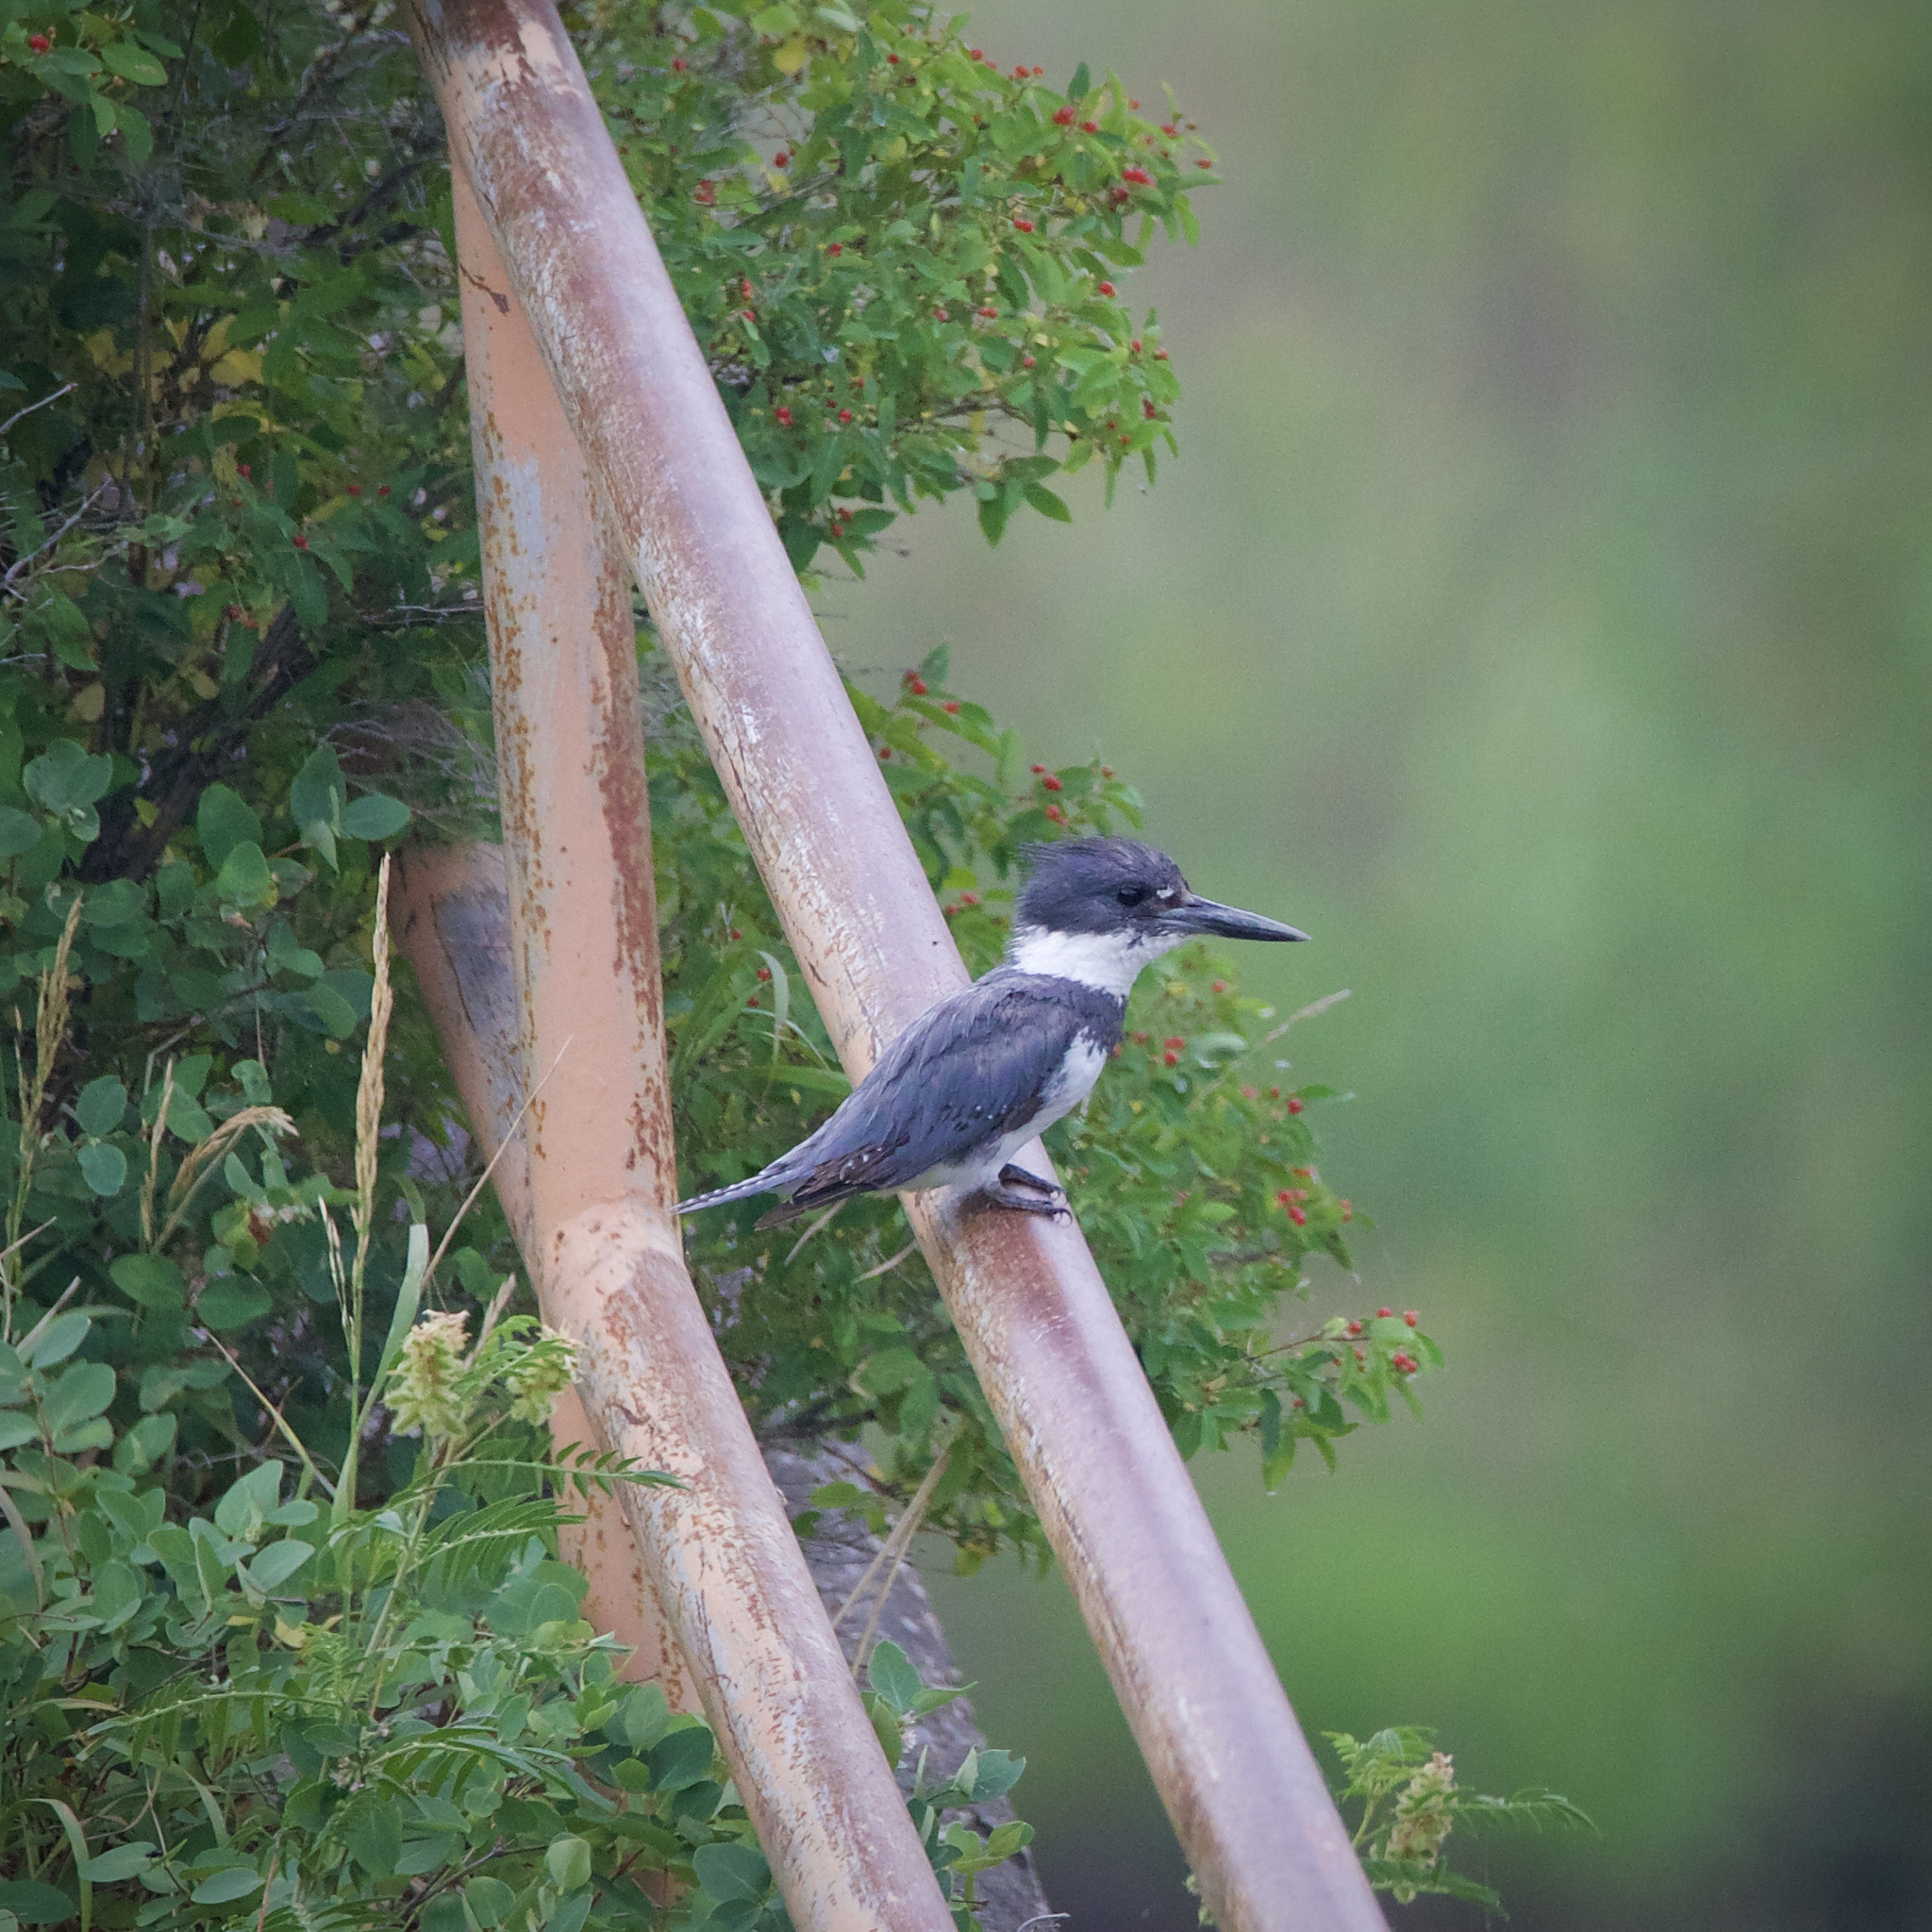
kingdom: Animalia
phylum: Chordata
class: Aves
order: Coraciiformes
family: Alcedinidae
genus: Megaceryle
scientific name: Megaceryle alcyon
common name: Belted kingfisher
